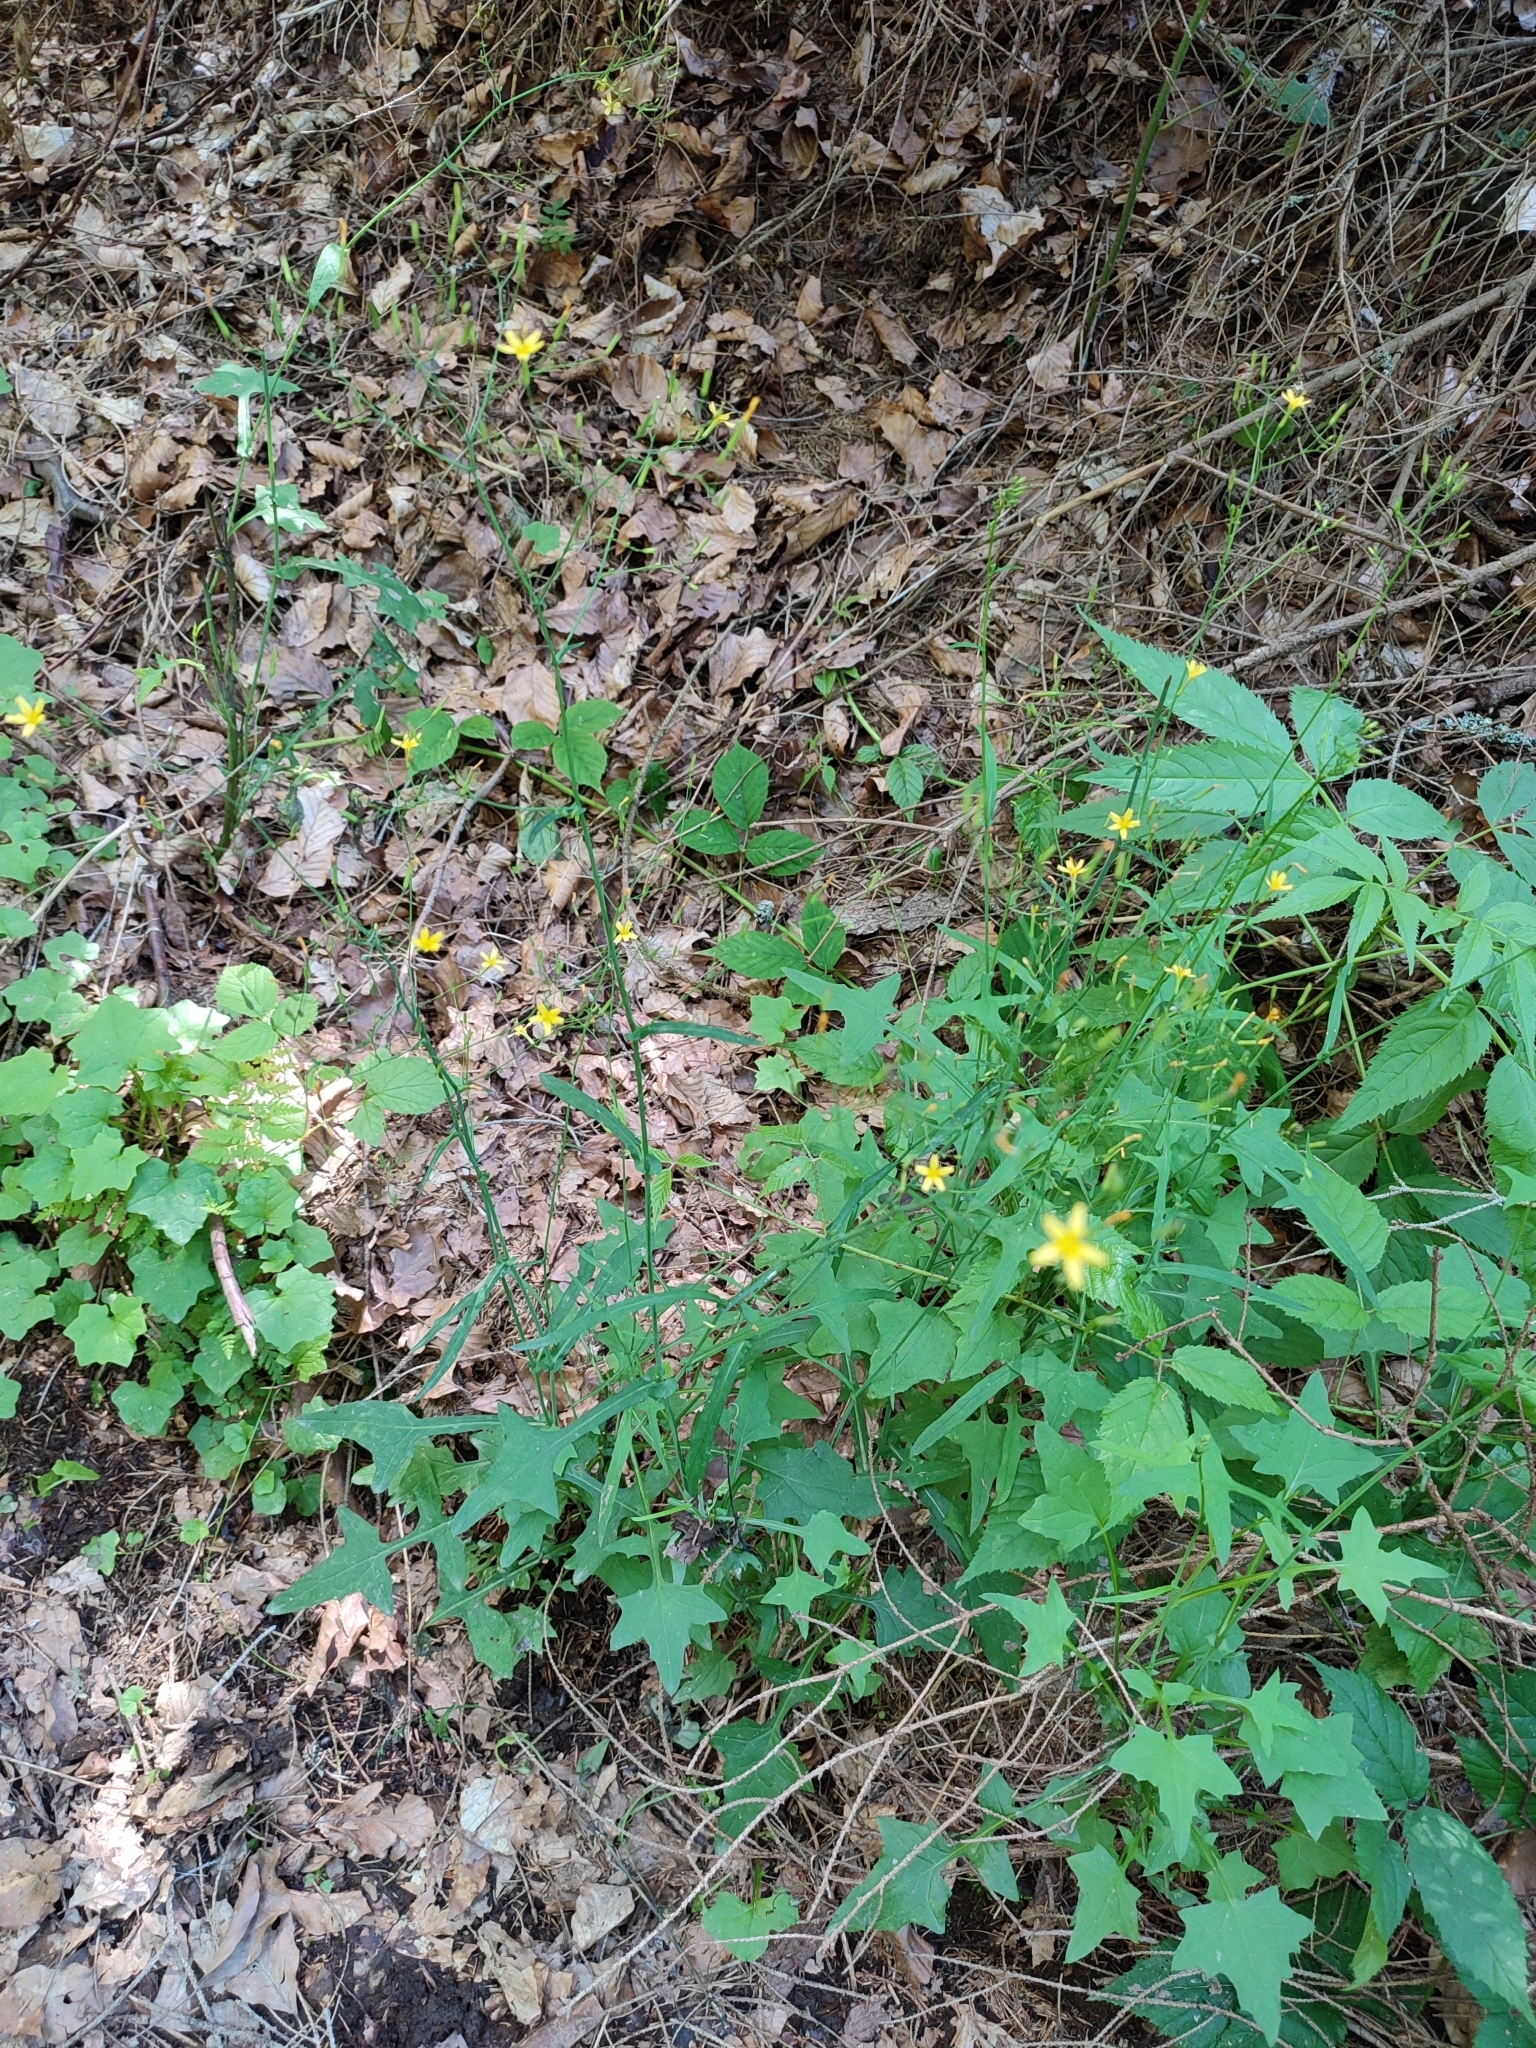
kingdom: Plantae
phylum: Tracheophyta
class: Magnoliopsida
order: Asterales
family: Asteraceae
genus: Mycelis
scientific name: Mycelis muralis
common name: Wall lettuce
